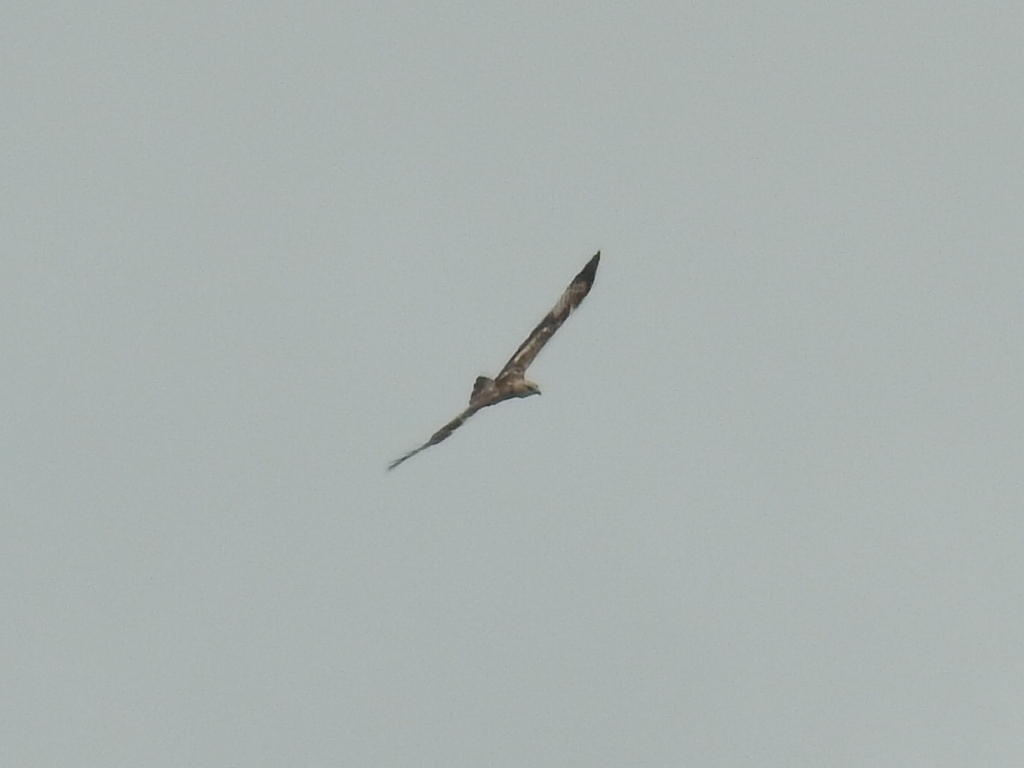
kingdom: Animalia
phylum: Chordata
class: Aves
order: Accipitriformes
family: Accipitridae
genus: Pernis
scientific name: Pernis ptilorhynchus
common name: Crested honey buzzard
